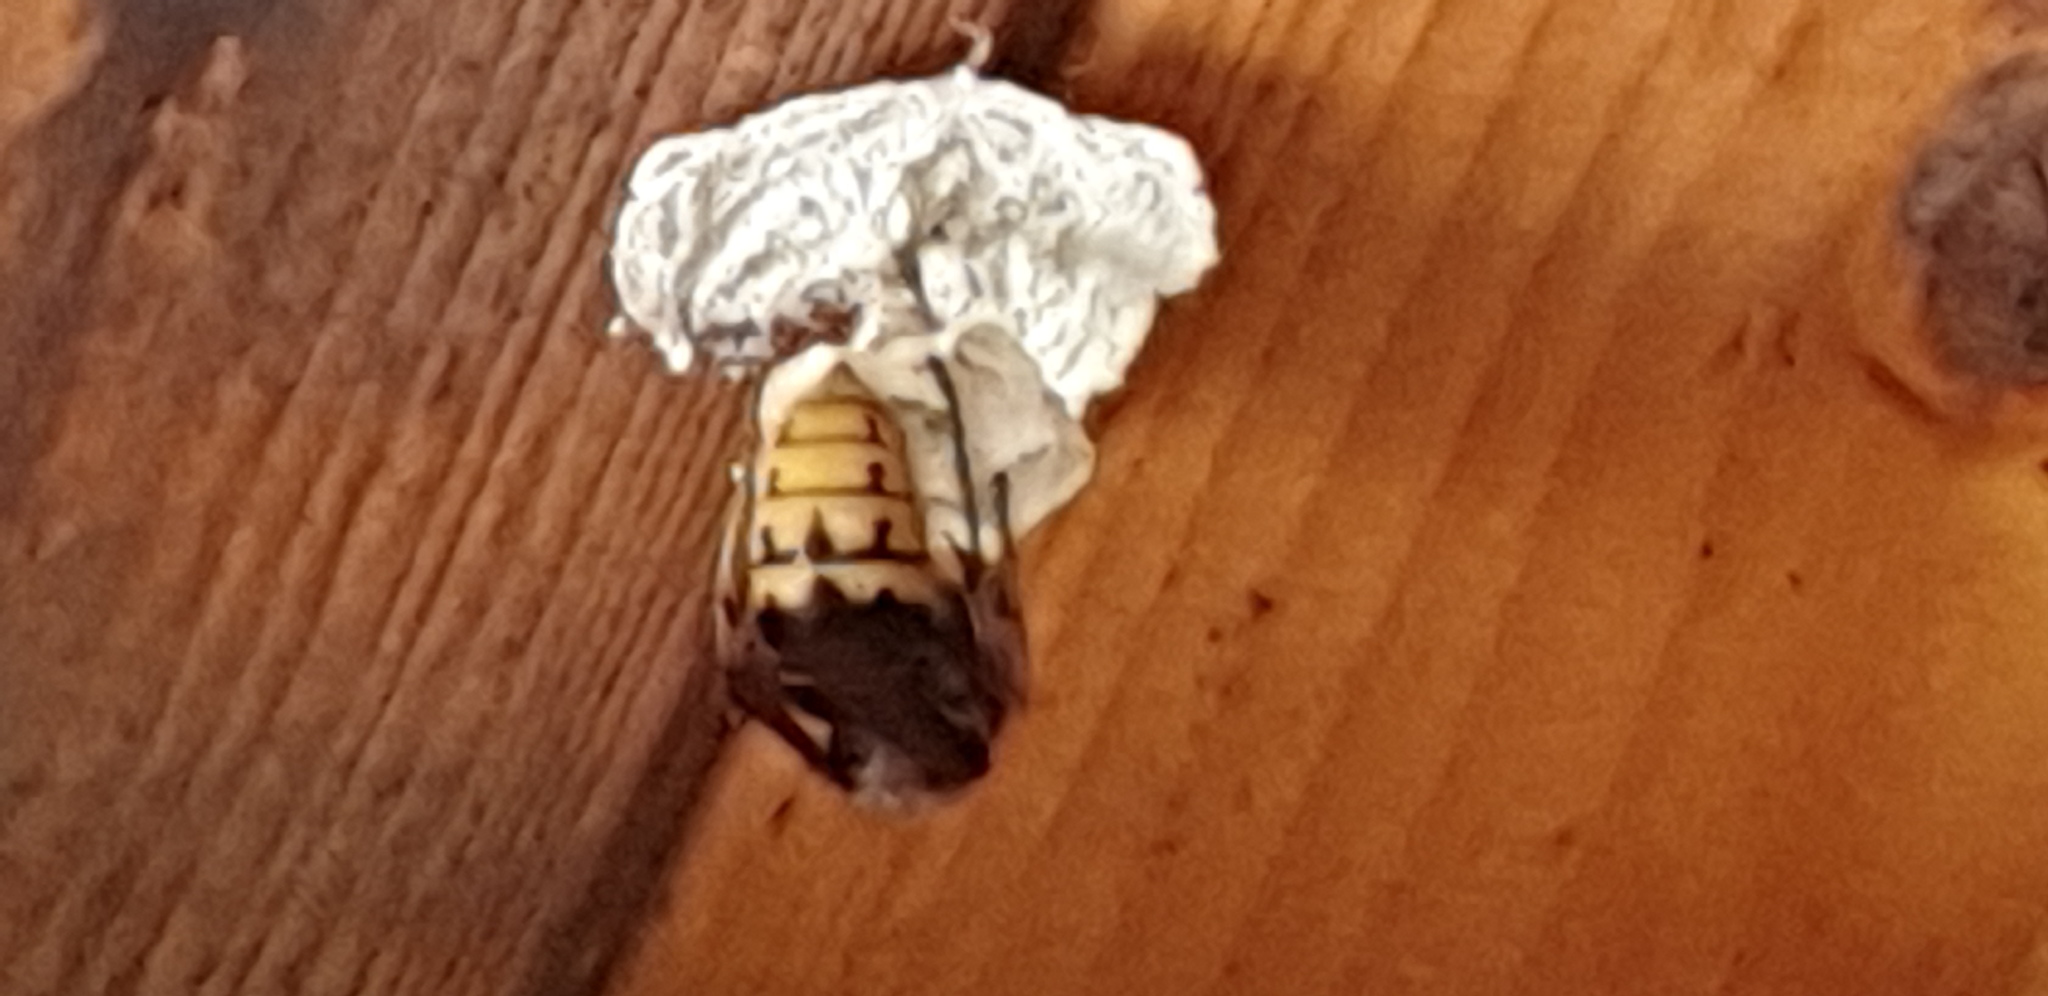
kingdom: Animalia
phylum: Arthropoda
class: Insecta
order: Hymenoptera
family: Vespidae
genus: Vespa
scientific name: Vespa crabro
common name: Hornet
